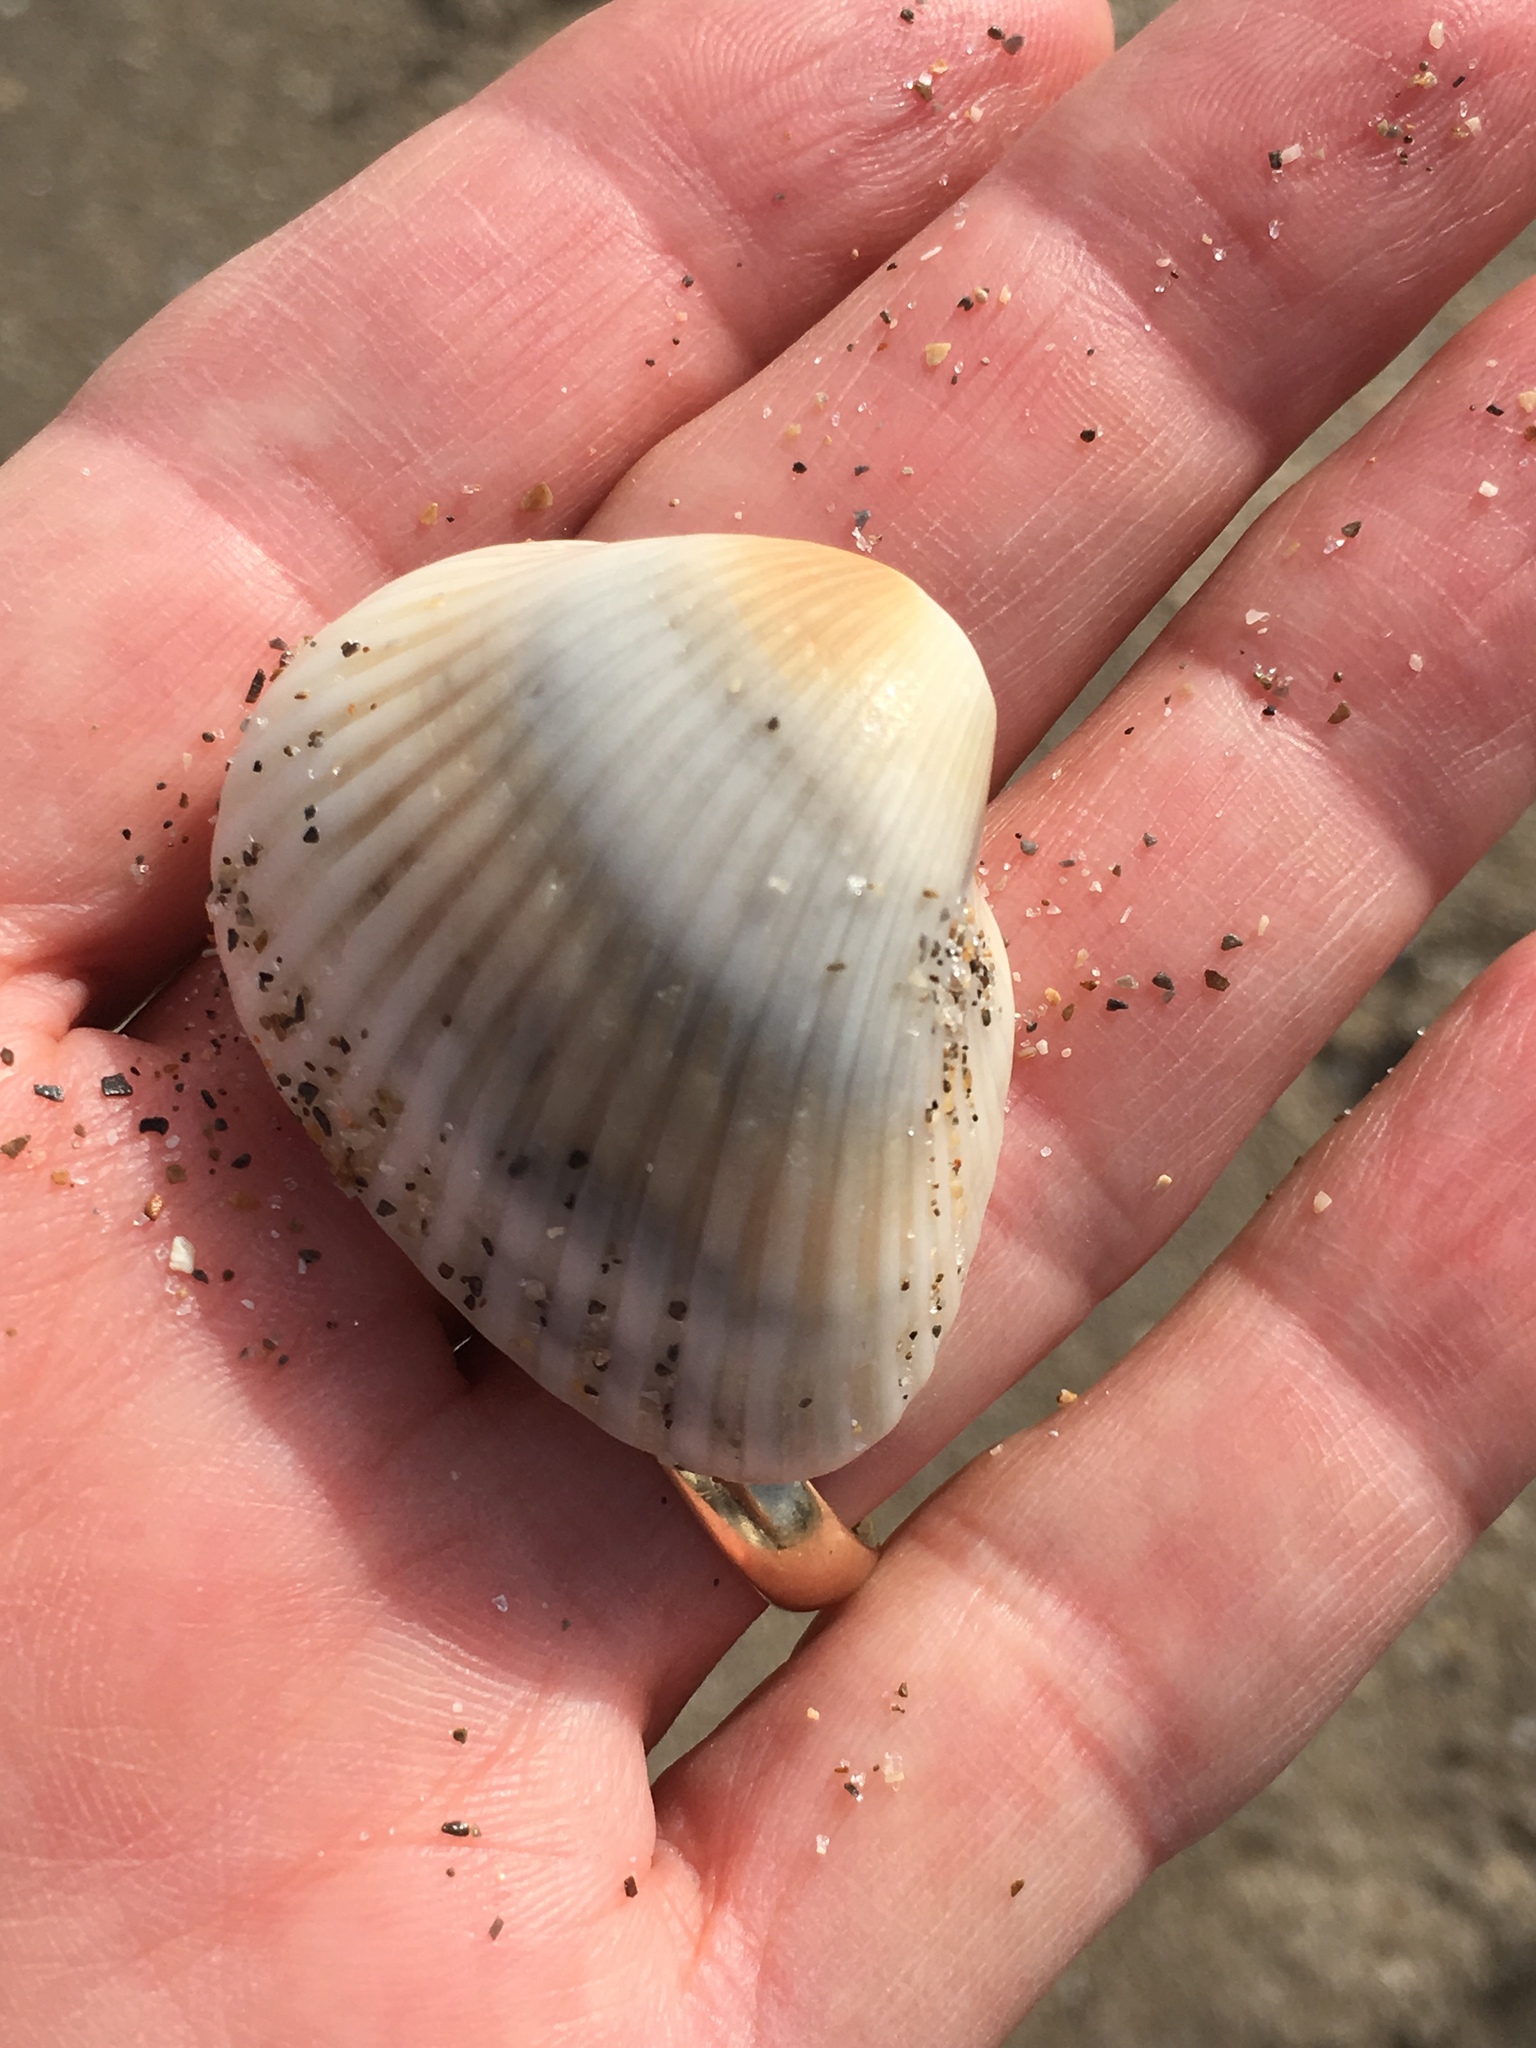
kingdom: Animalia
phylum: Mollusca
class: Bivalvia
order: Arcida
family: Noetiidae
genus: Noetia
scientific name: Noetia ponderosa
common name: Ponderous ark
